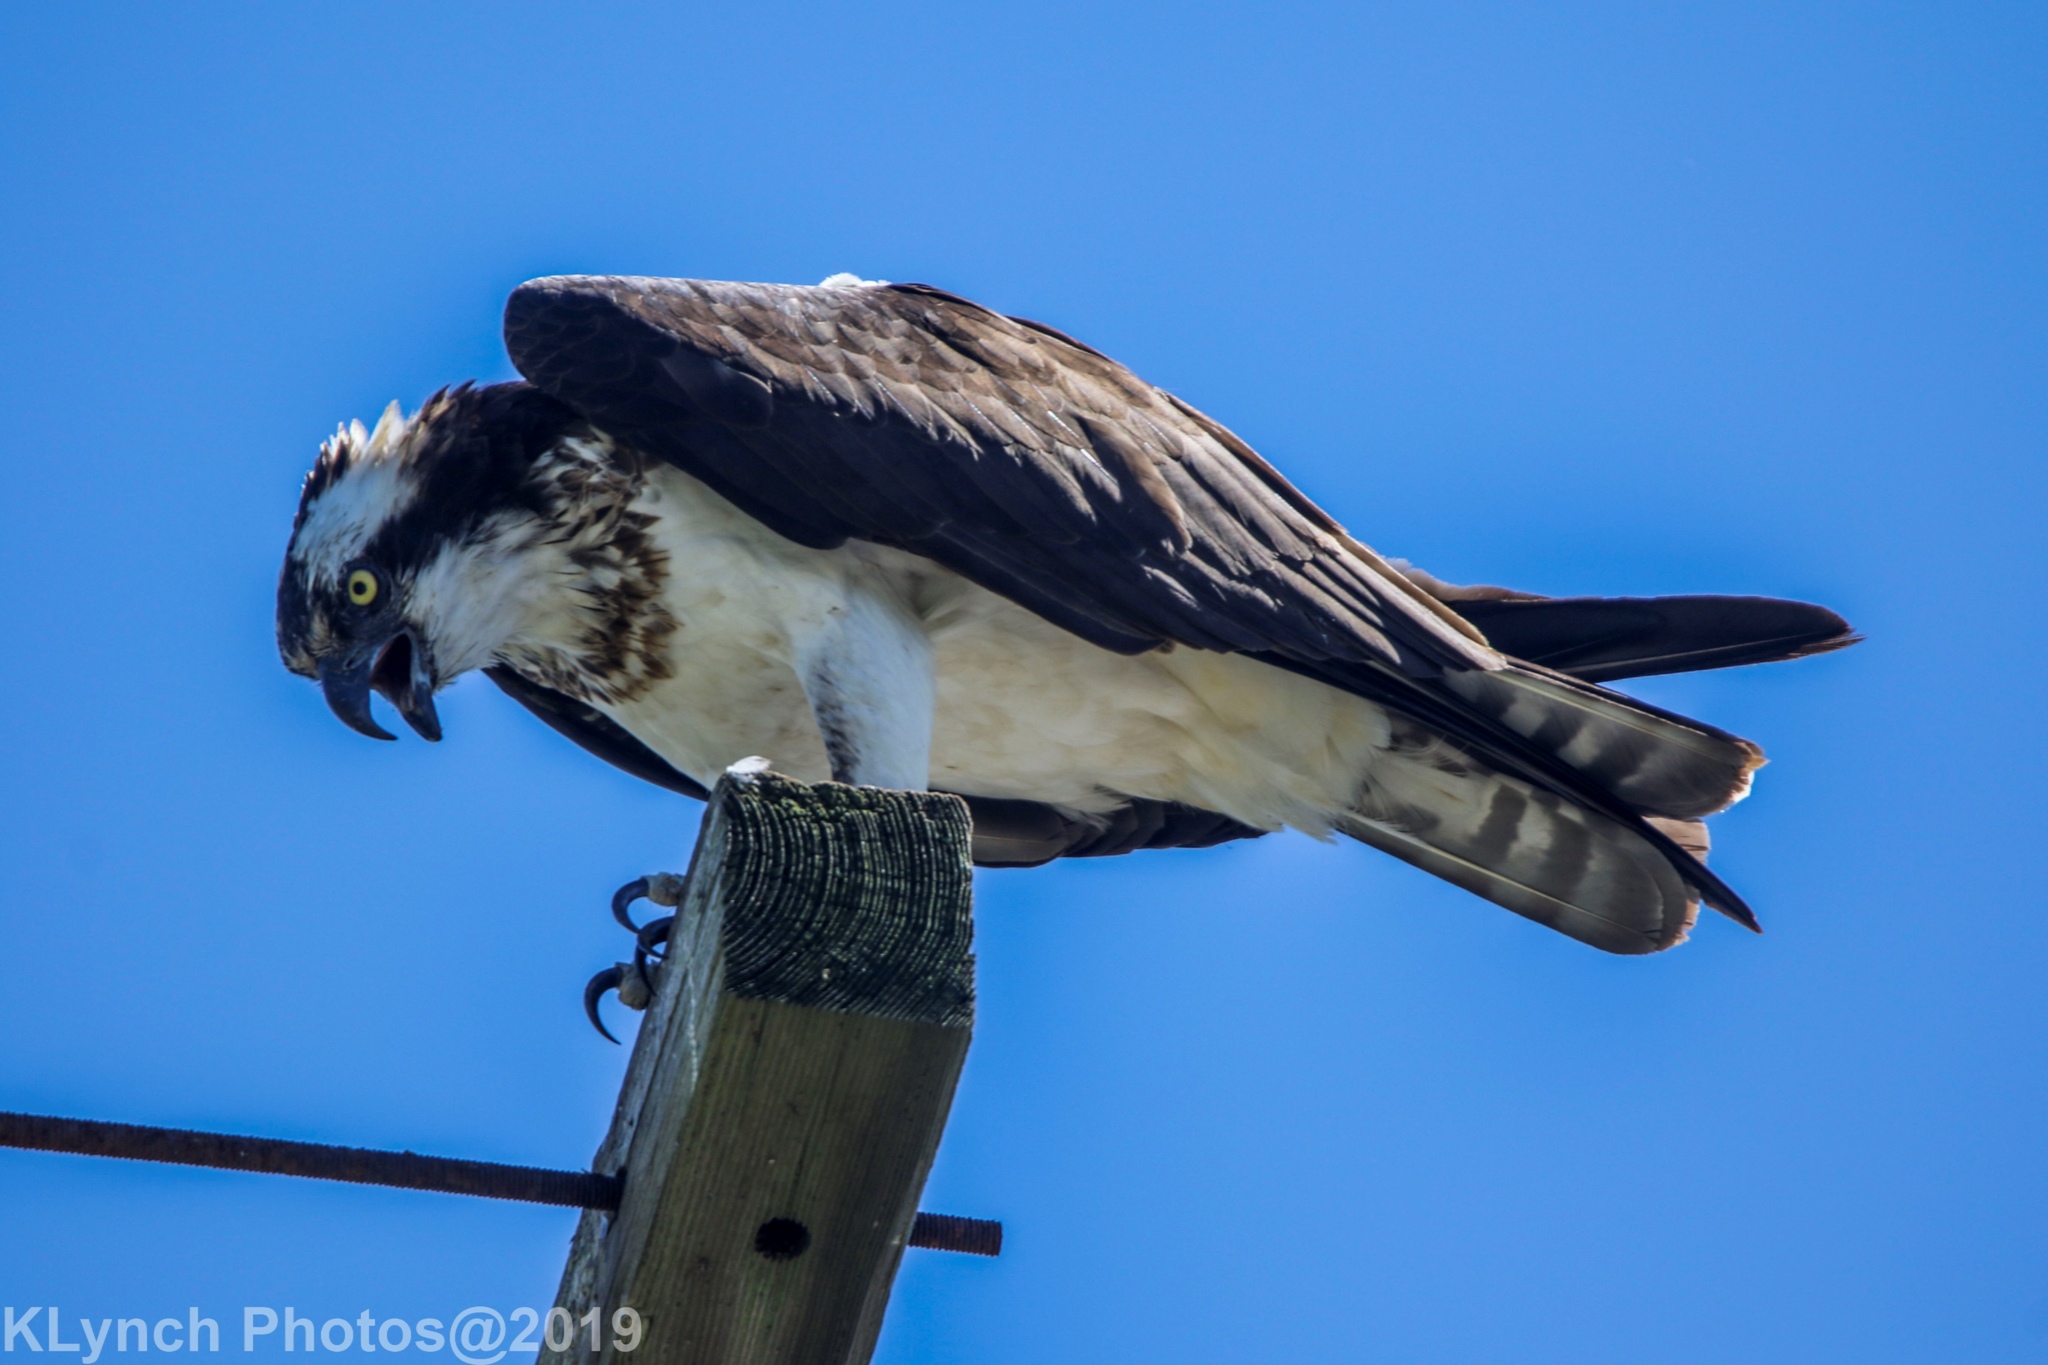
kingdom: Animalia
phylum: Chordata
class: Aves
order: Accipitriformes
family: Pandionidae
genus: Pandion
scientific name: Pandion haliaetus
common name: Osprey
